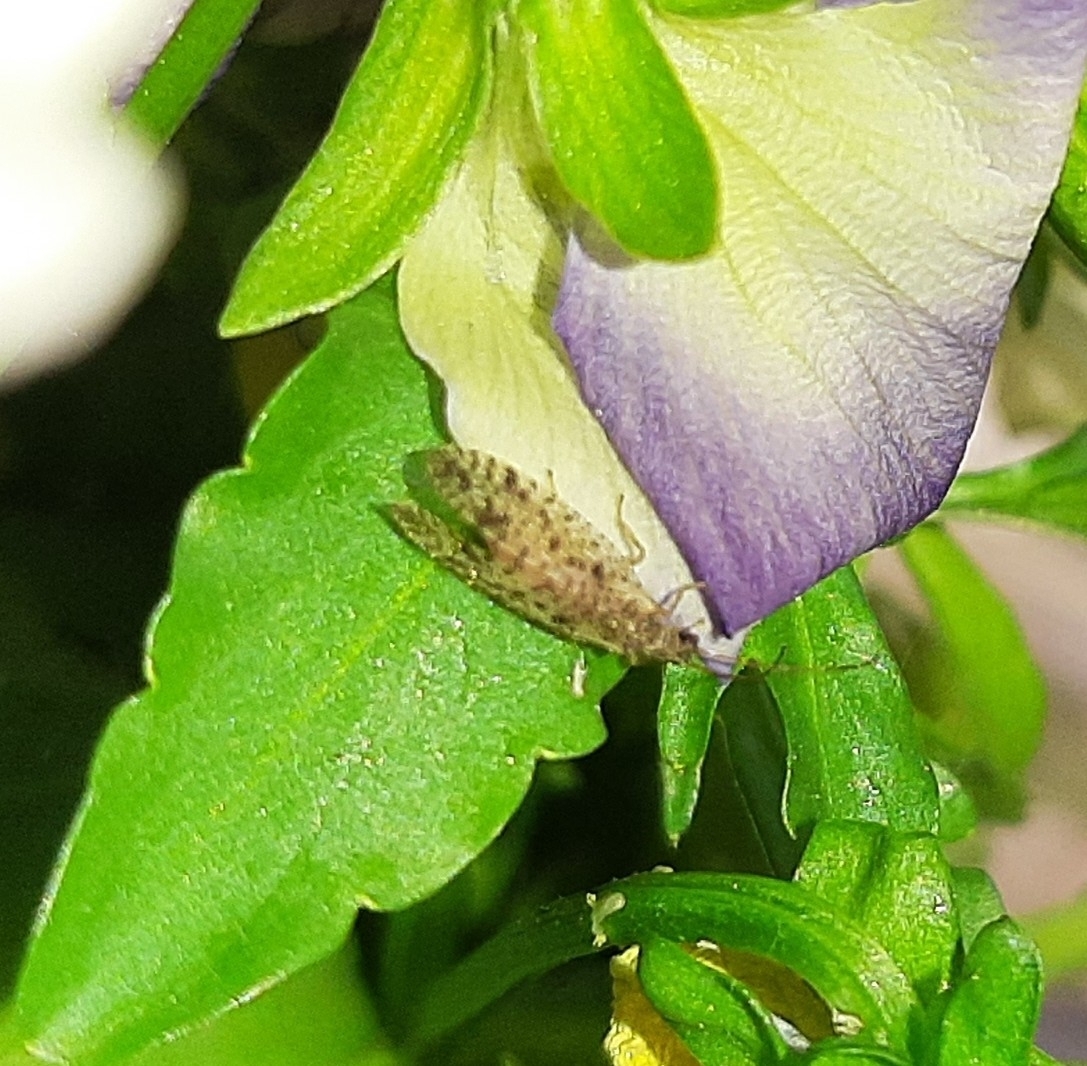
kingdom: Animalia
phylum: Arthropoda
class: Insecta
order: Neuroptera
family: Hemerobiidae
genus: Micromus
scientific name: Micromus variegatus
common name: Brown lacewing
